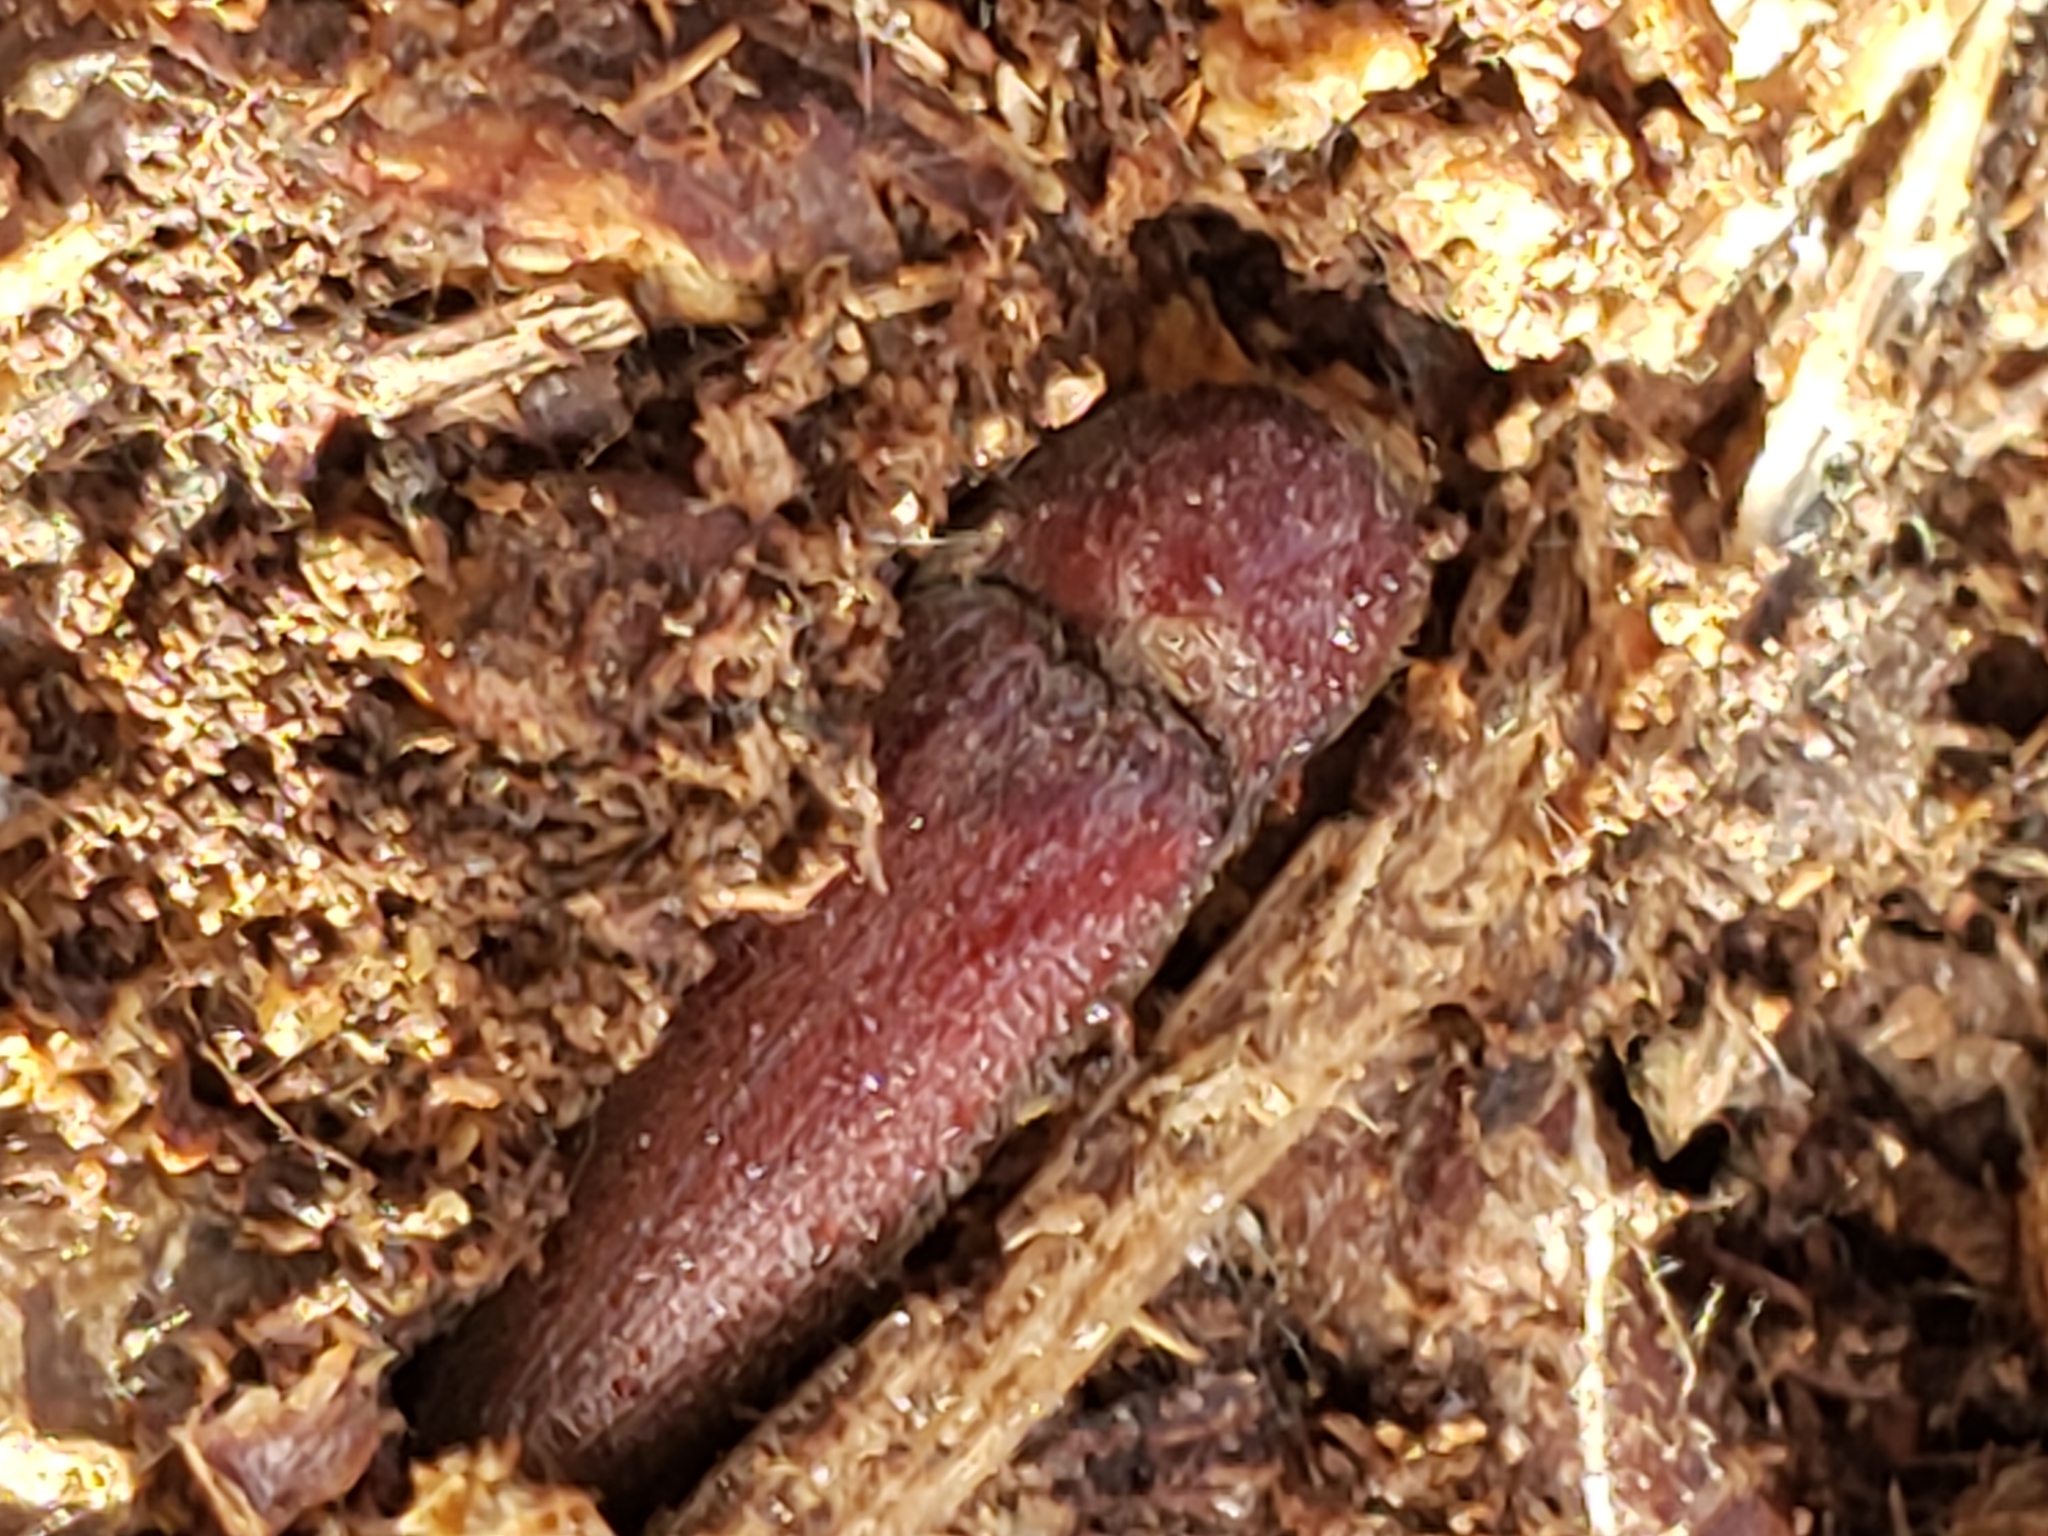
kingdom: Animalia
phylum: Arthropoda
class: Insecta
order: Coleoptera
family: Elateridae
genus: Melanotus
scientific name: Melanotus
